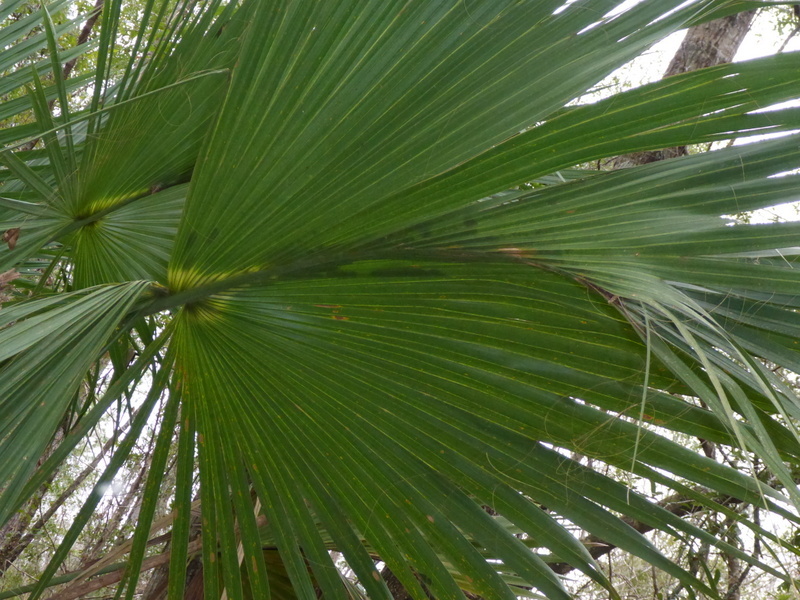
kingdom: Plantae
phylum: Tracheophyta
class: Liliopsida
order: Arecales
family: Arecaceae
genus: Sabal
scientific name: Sabal palmetto
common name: Blue palmetto
